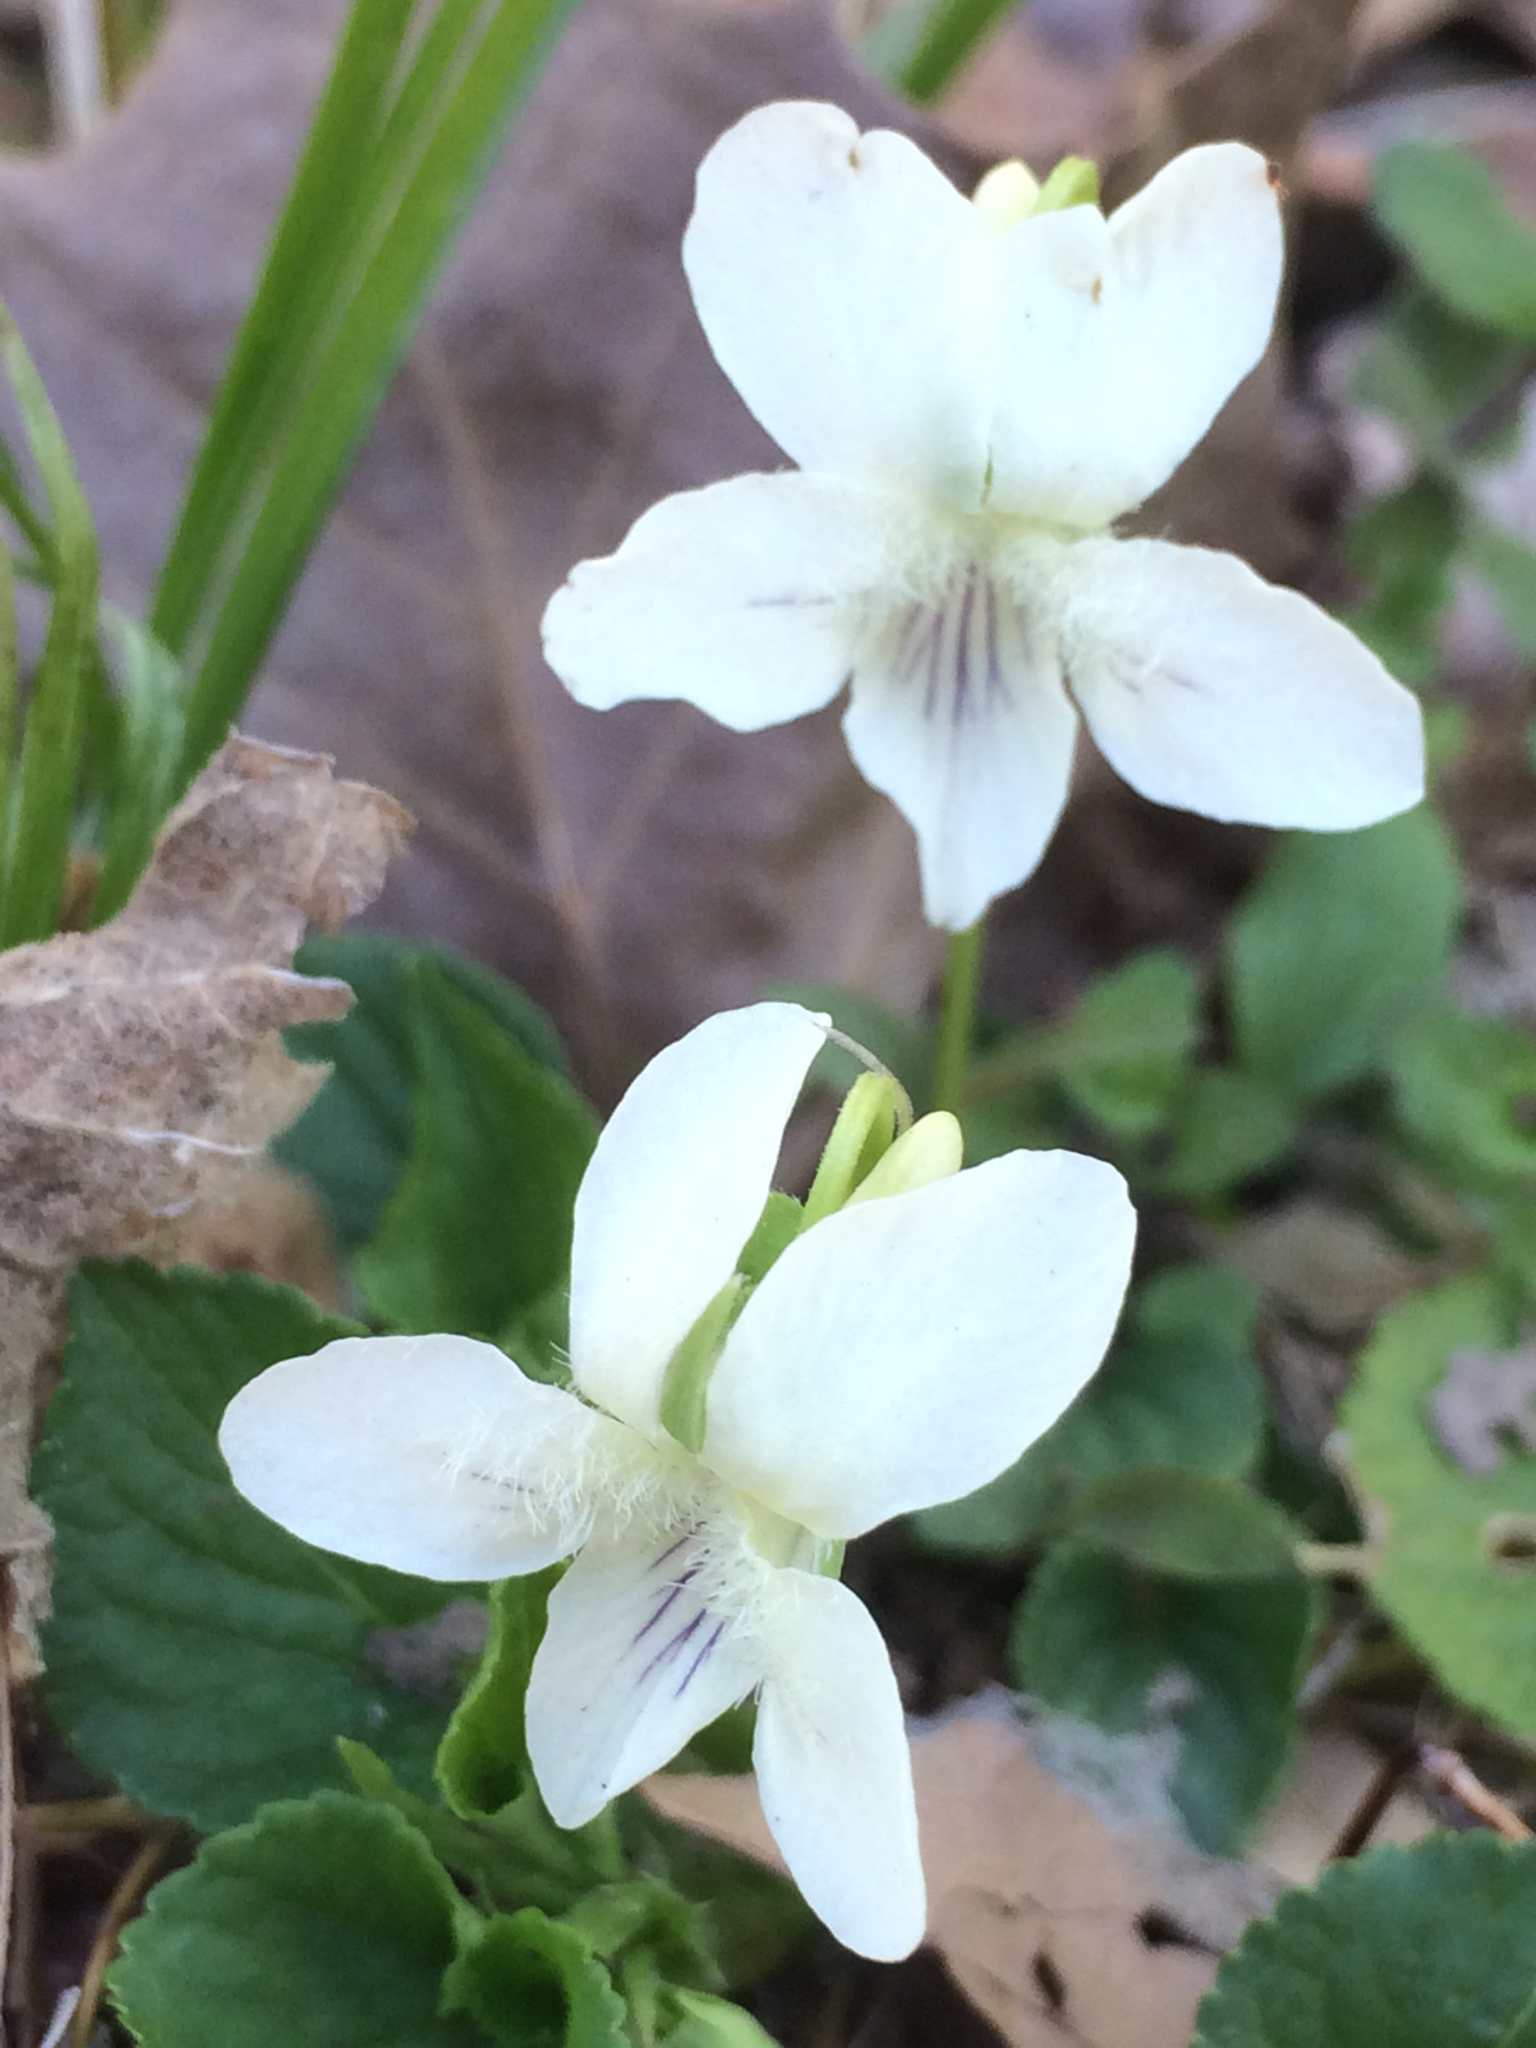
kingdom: Plantae
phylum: Tracheophyta
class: Magnoliopsida
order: Malpighiales
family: Violaceae
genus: Viola
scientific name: Viola striata
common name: Cream violet
